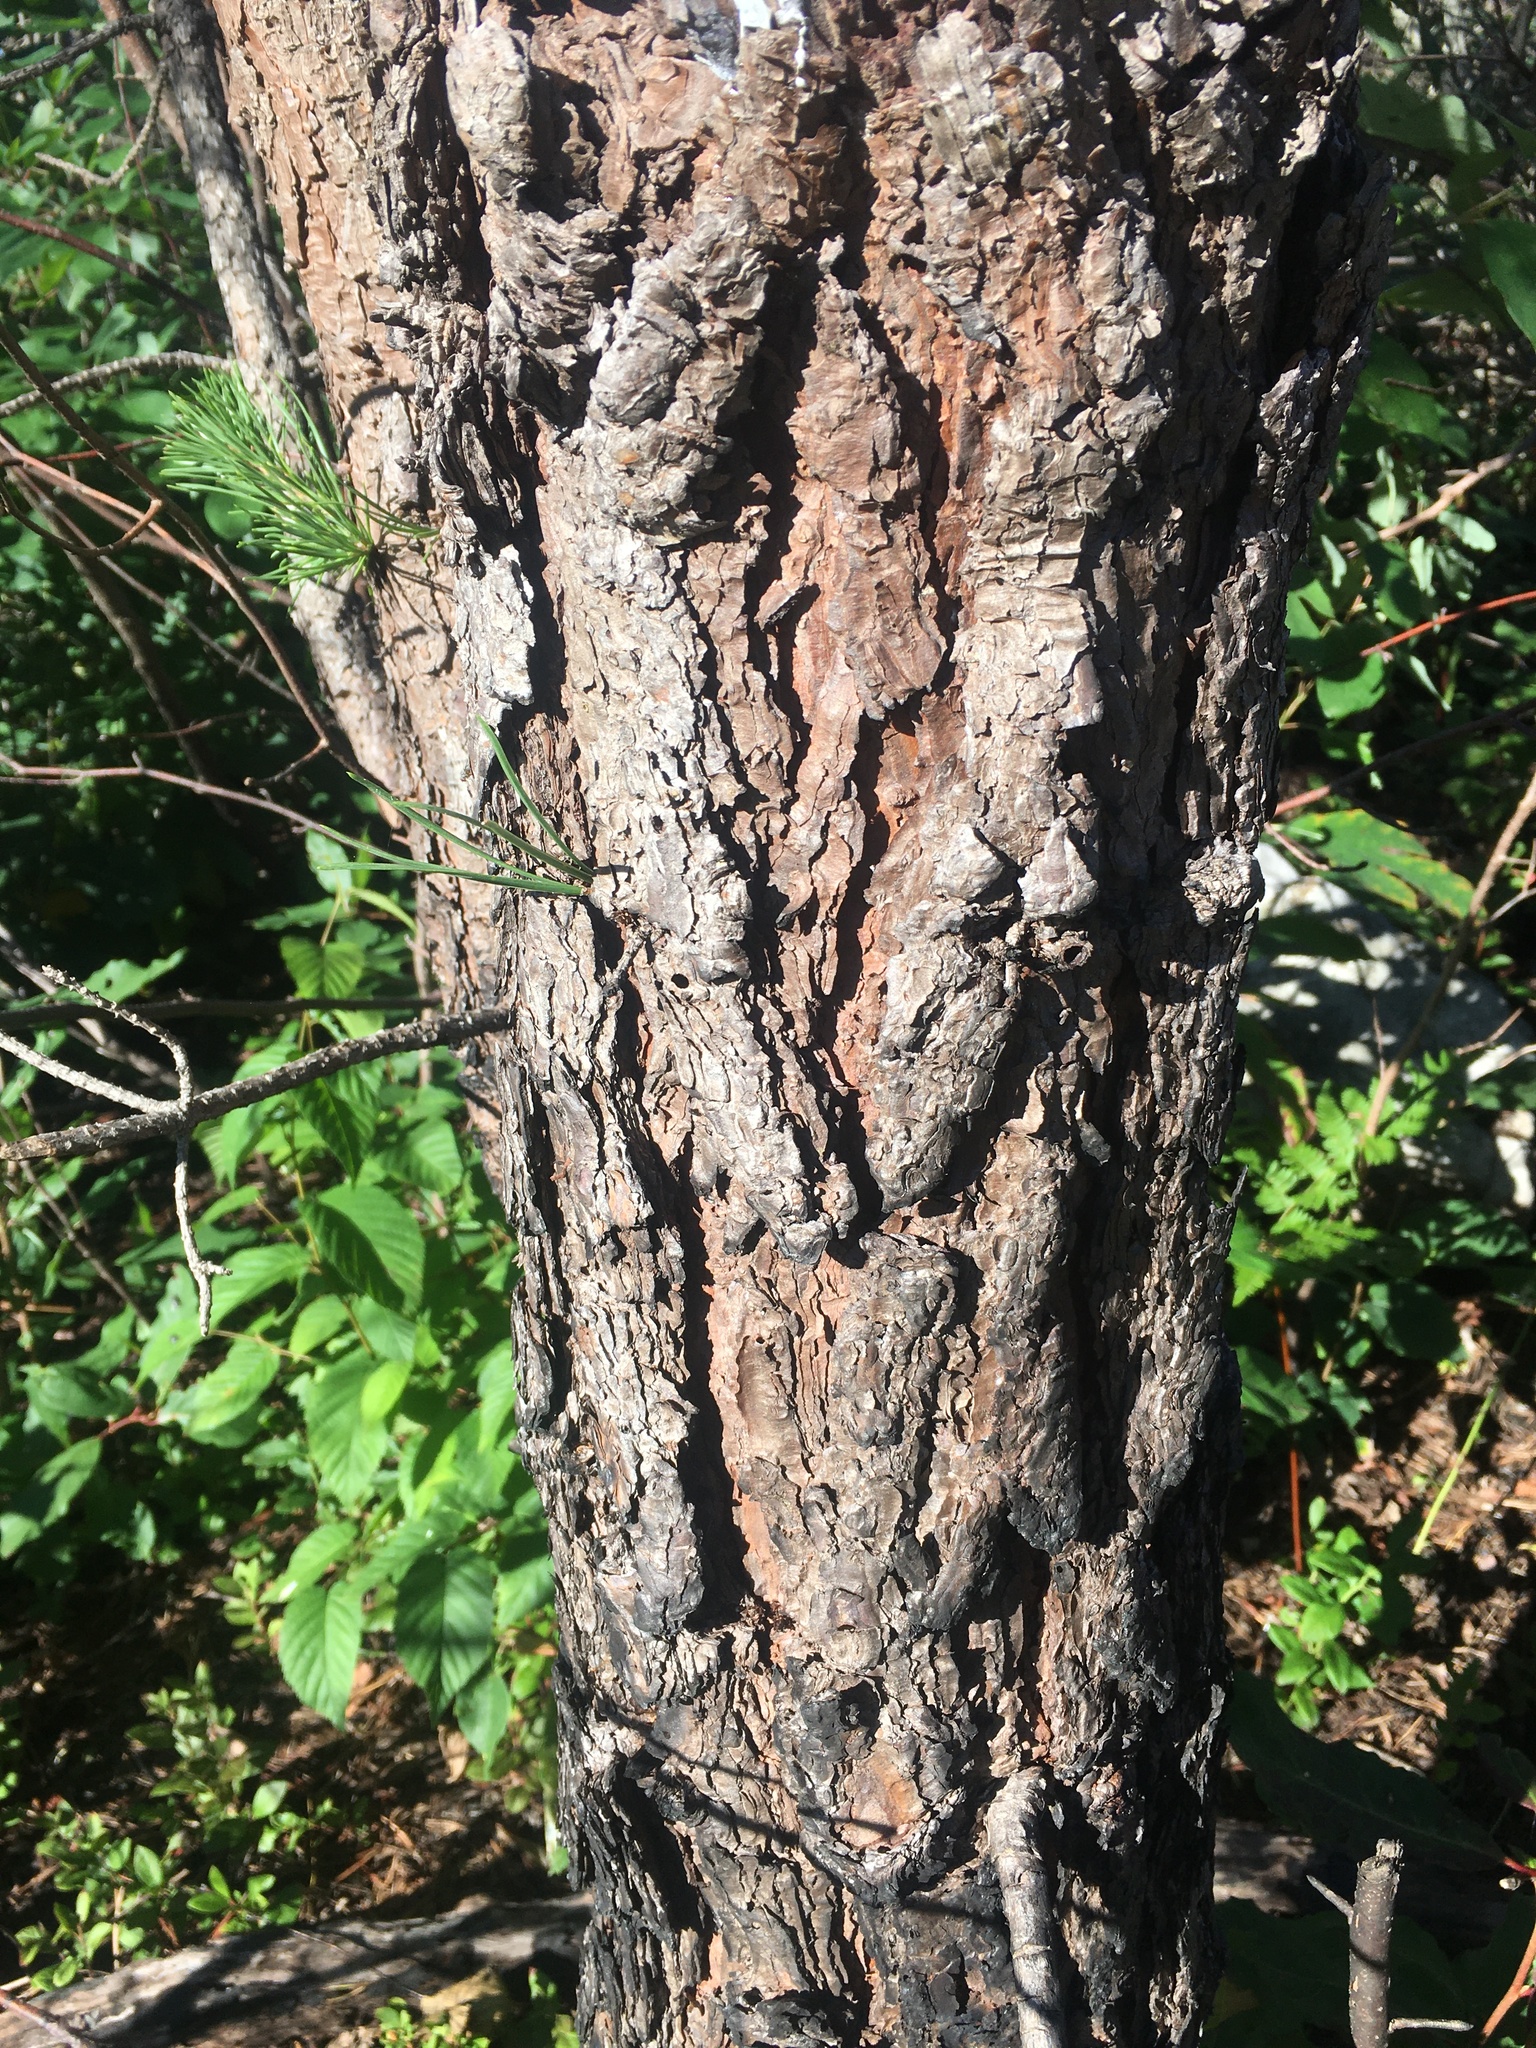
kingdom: Plantae
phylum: Tracheophyta
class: Pinopsida
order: Pinales
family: Pinaceae
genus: Pinus
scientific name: Pinus rigida
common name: Pitch pine
